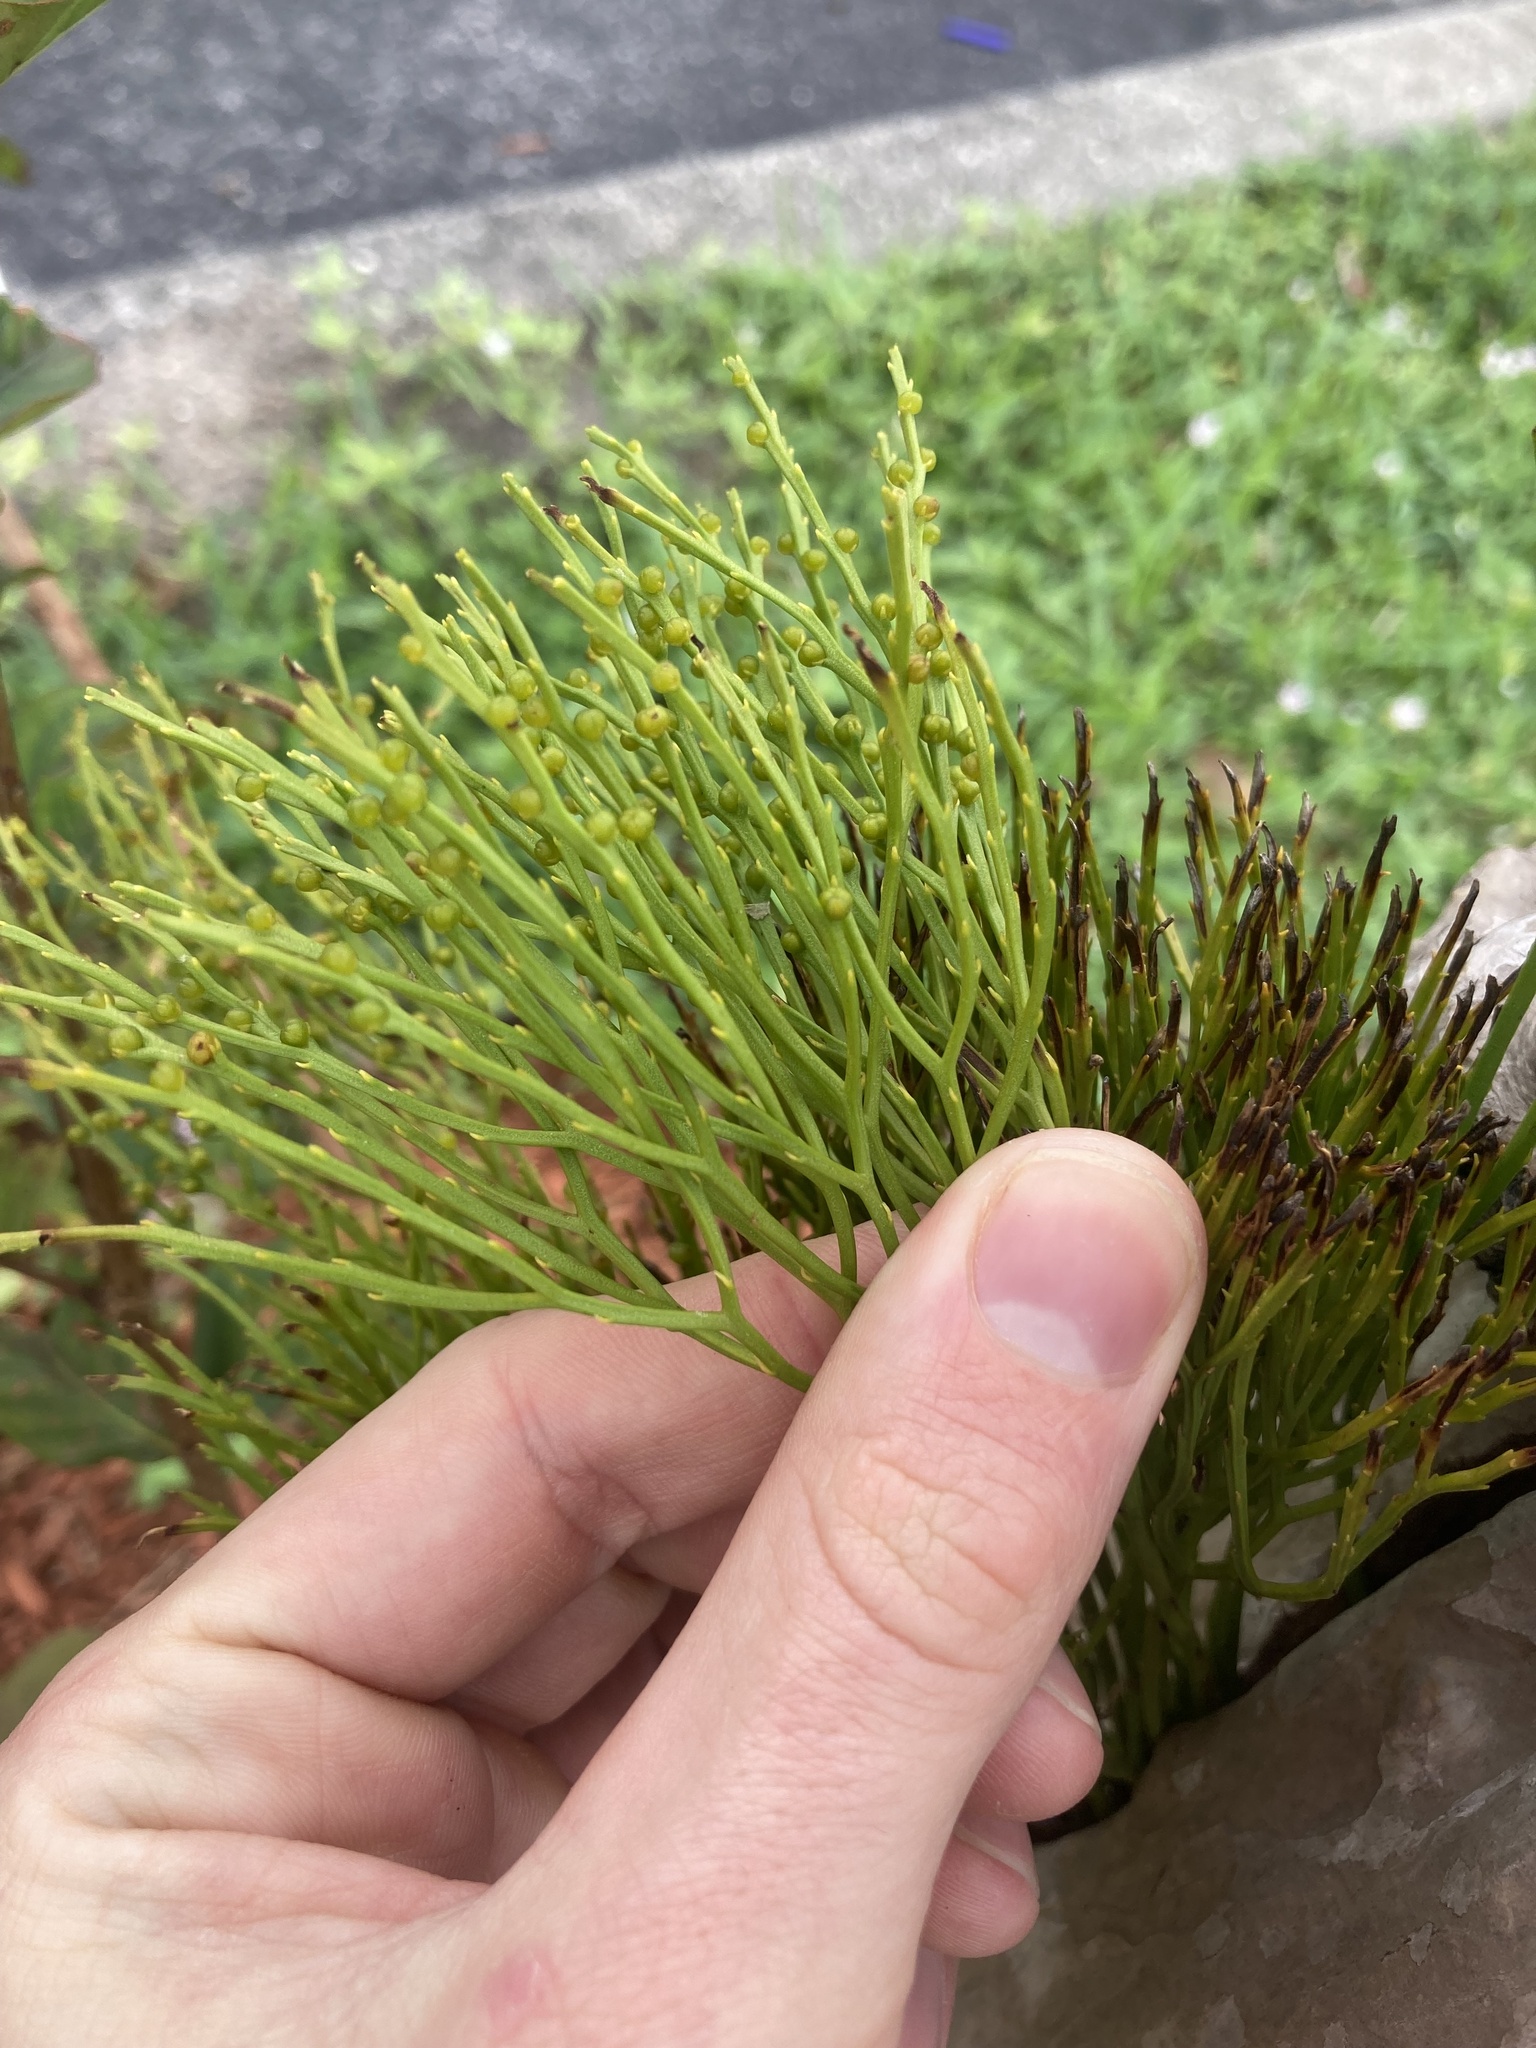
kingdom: Plantae
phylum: Tracheophyta
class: Polypodiopsida
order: Psilotales
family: Psilotaceae
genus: Psilotum
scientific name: Psilotum nudum
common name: Skeleton fork fern
